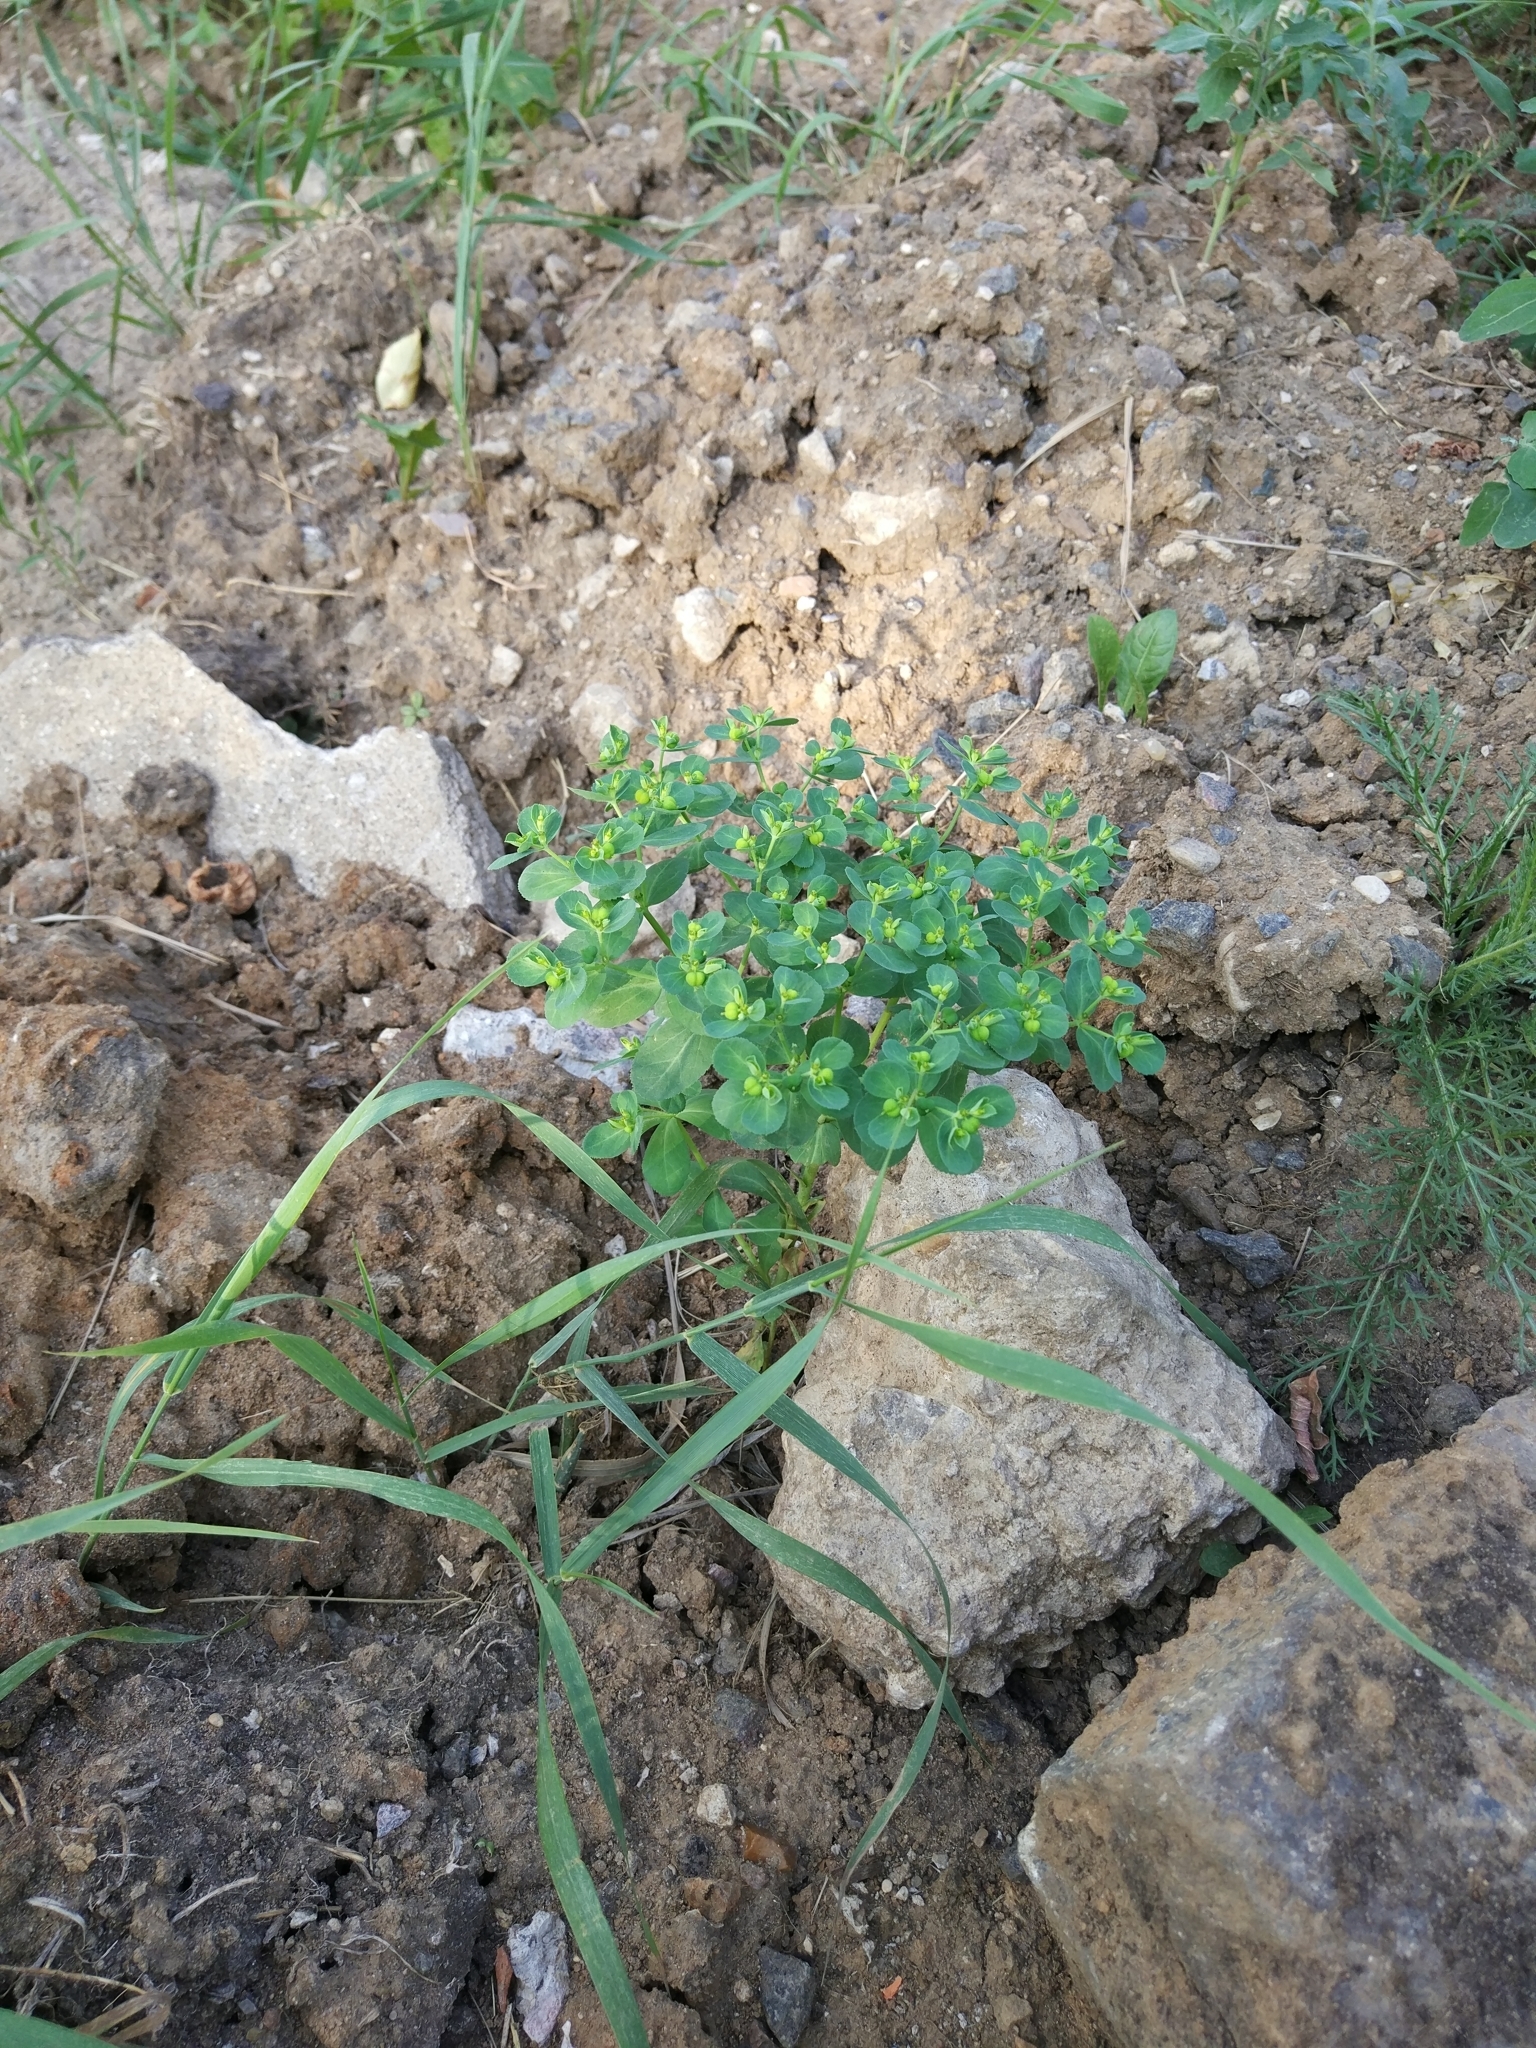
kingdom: Plantae
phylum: Tracheophyta
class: Magnoliopsida
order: Malpighiales
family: Euphorbiaceae
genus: Euphorbia
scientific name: Euphorbia helioscopia
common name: Sun spurge
